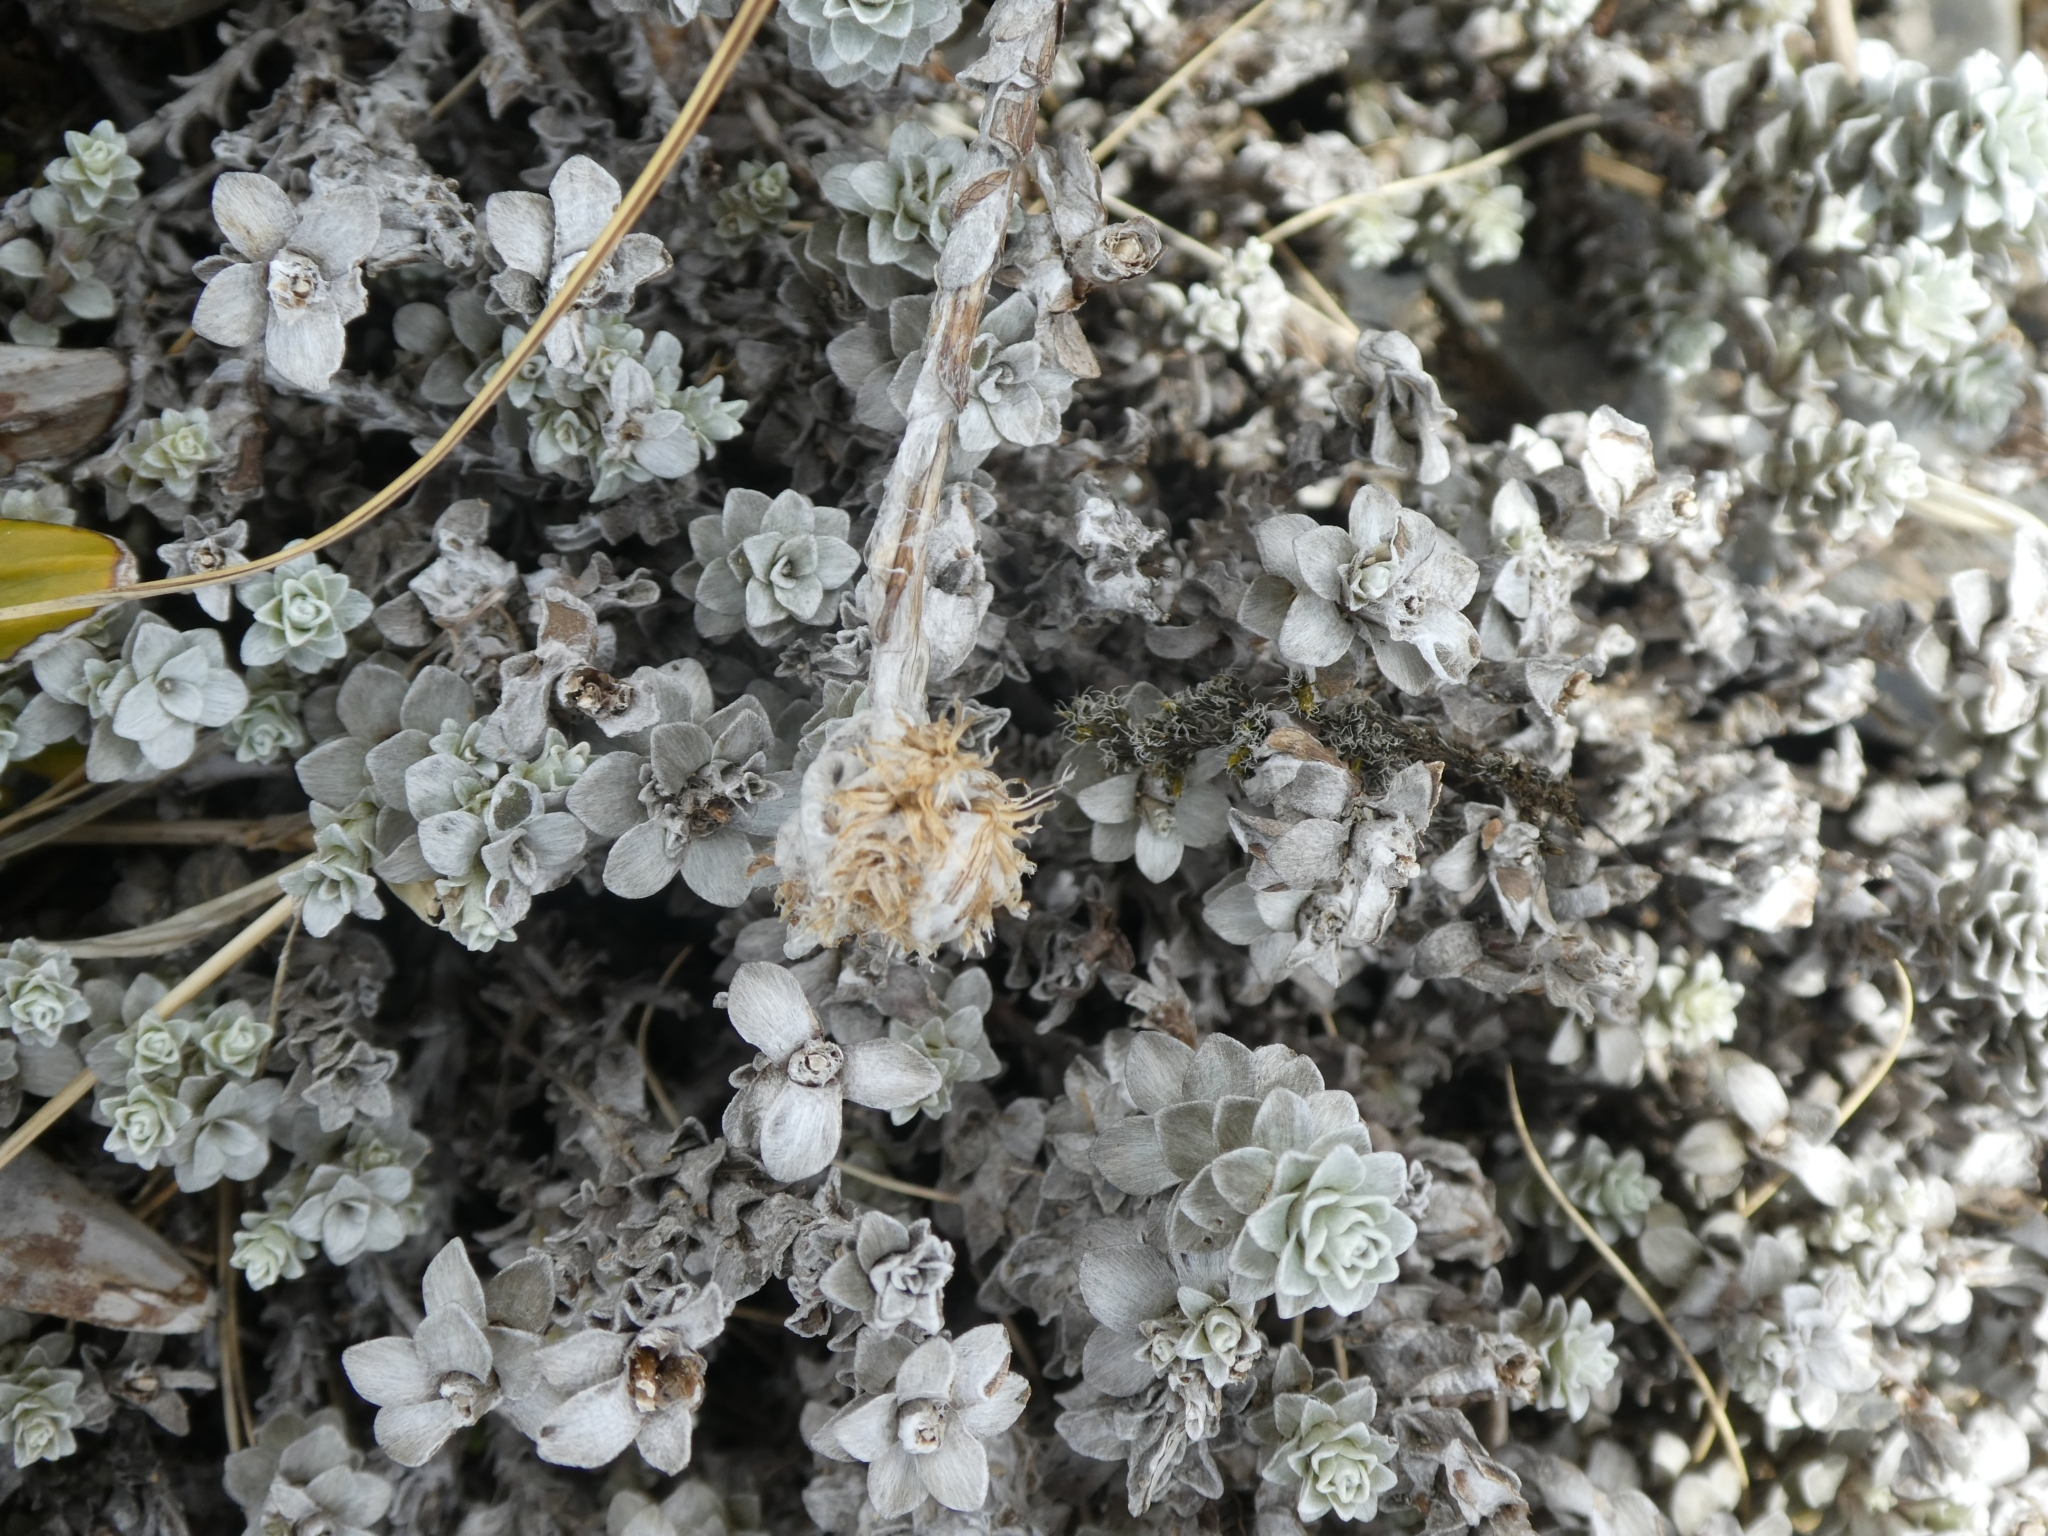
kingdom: Plantae
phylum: Tracheophyta
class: Magnoliopsida
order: Asterales
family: Asteraceae
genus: Leucogenes
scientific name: Leucogenes grandiceps
